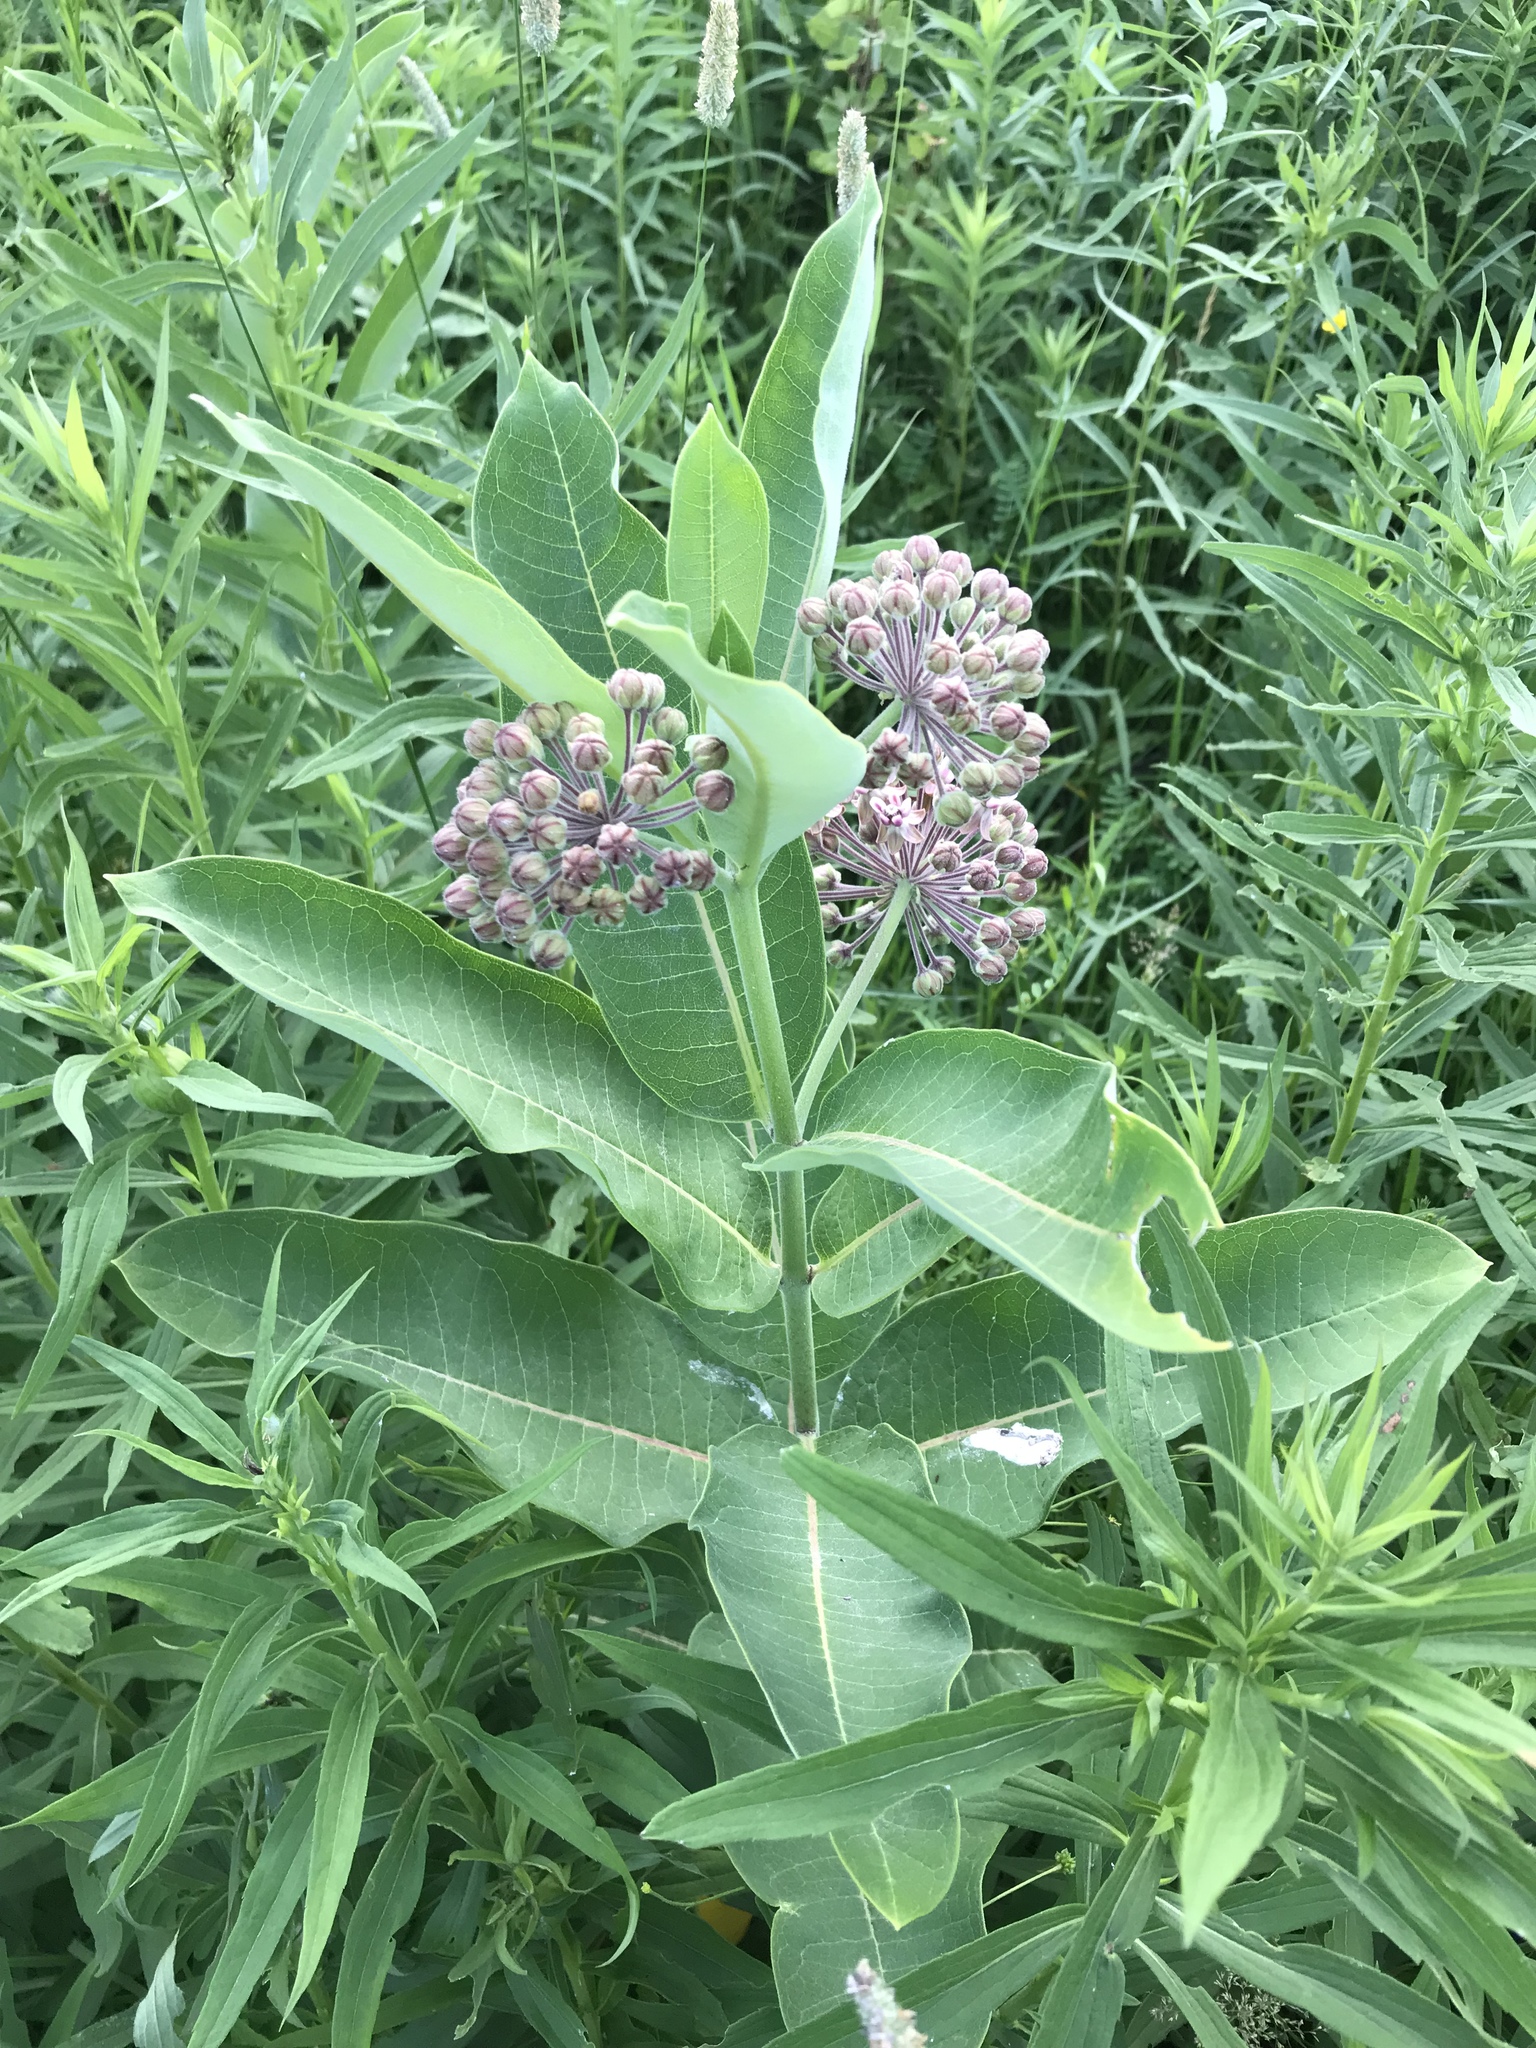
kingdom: Plantae
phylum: Tracheophyta
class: Magnoliopsida
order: Gentianales
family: Apocynaceae
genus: Asclepias
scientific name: Asclepias syriaca
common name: Common milkweed
